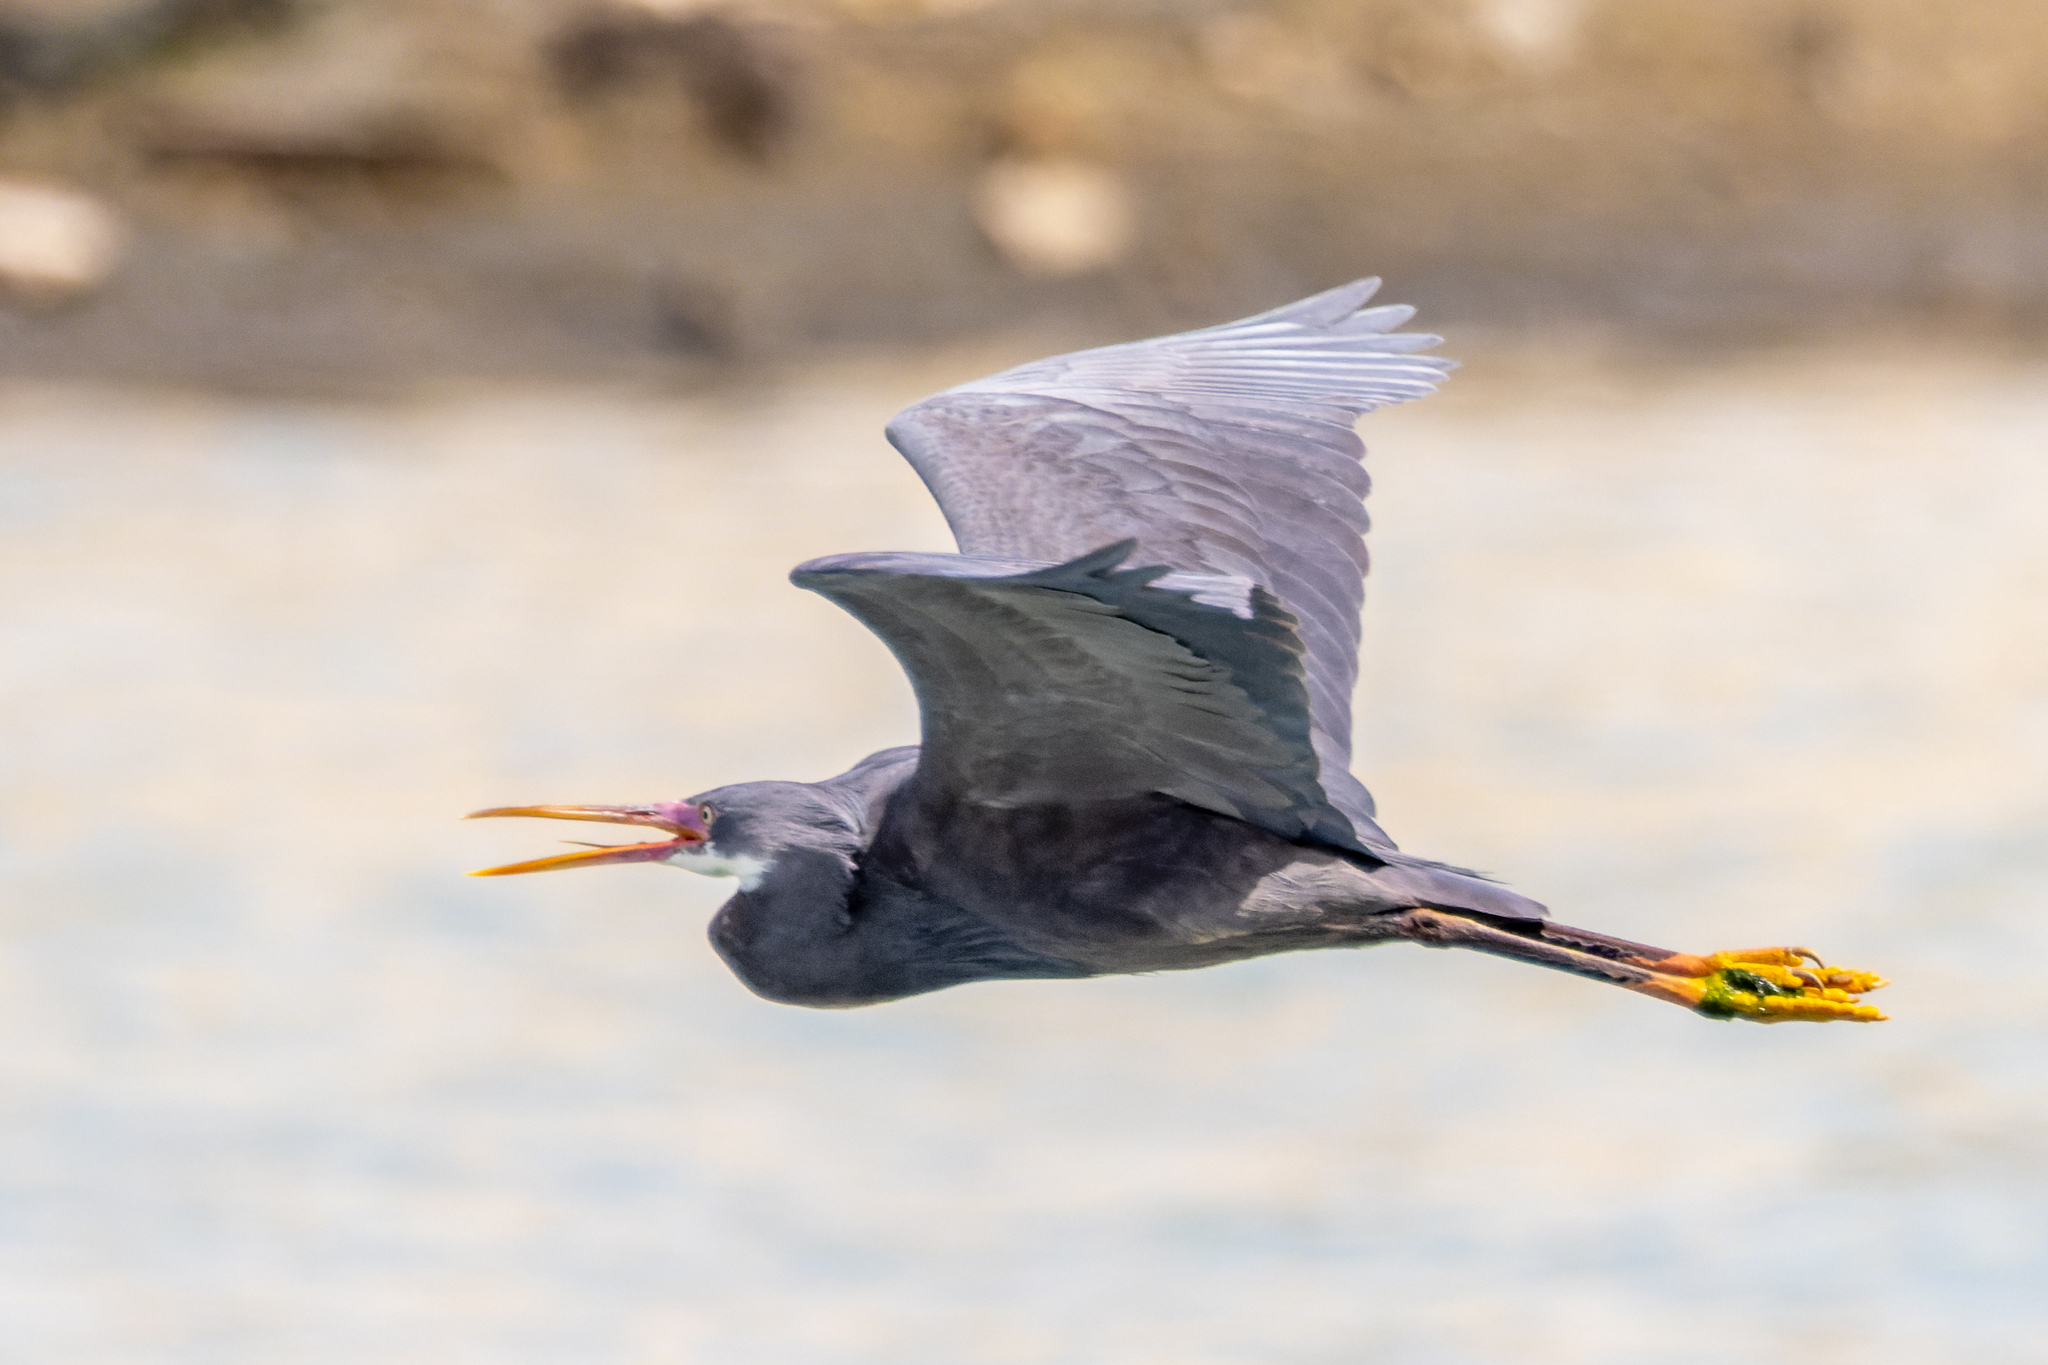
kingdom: Animalia
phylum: Chordata
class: Aves
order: Pelecaniformes
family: Ardeidae
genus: Egretta
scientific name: Egretta gularis
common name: Western reef-heron
